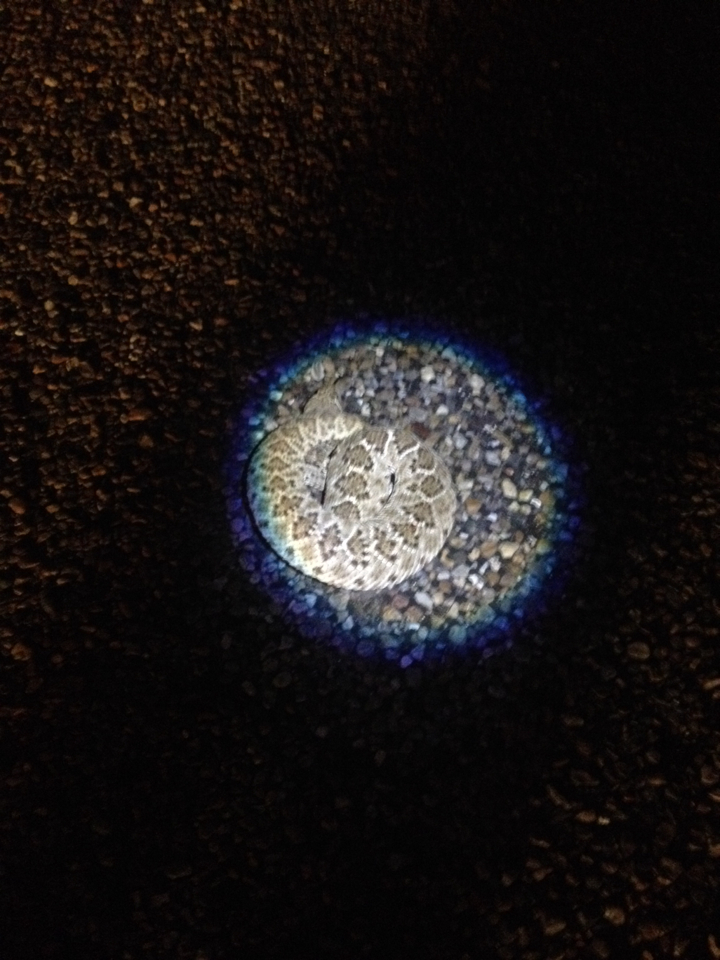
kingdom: Animalia
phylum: Chordata
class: Squamata
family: Viperidae
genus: Crotalus
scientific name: Crotalus atrox
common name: Western diamond-backed rattlesnake
